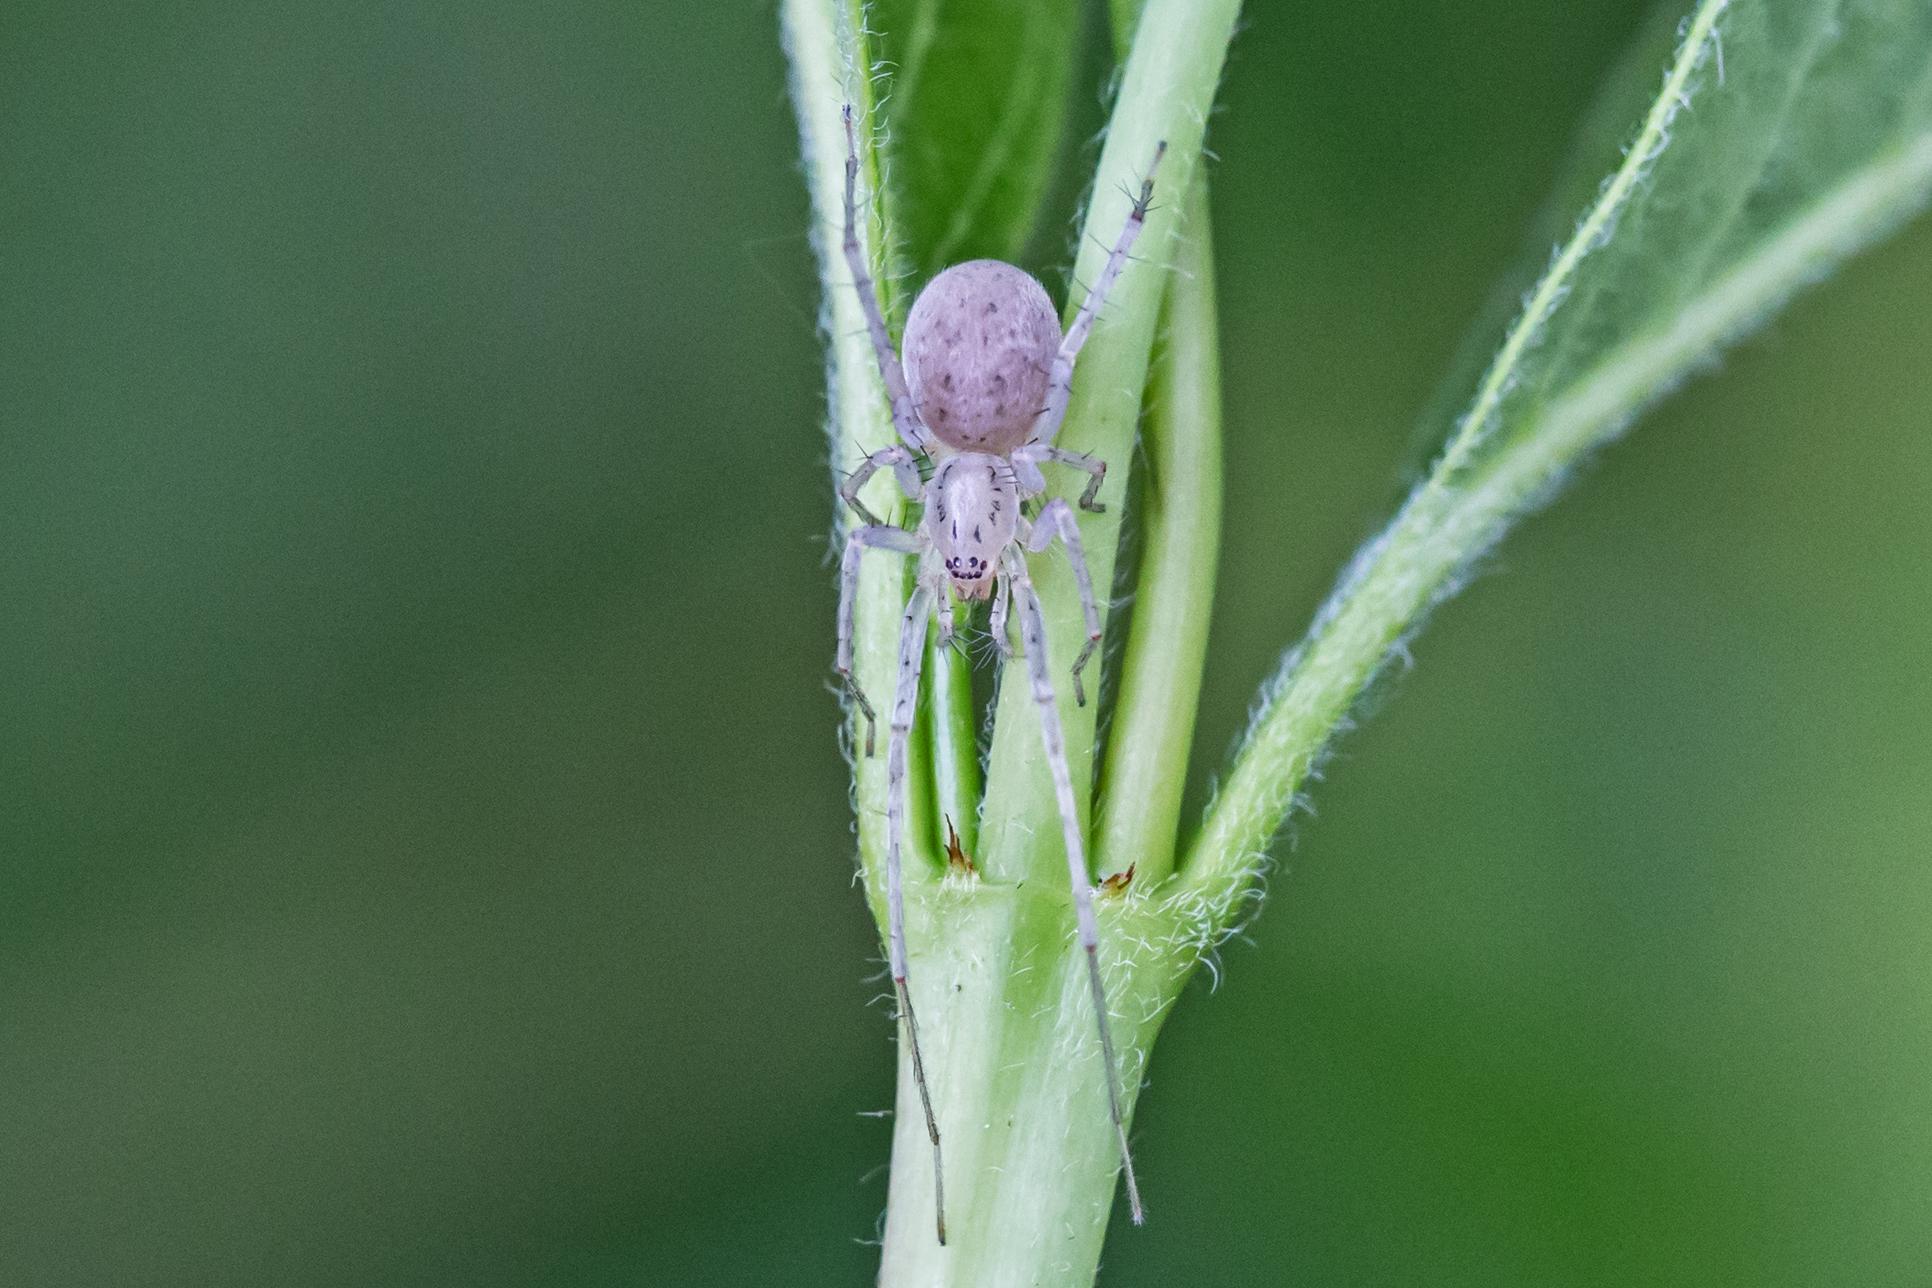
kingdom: Animalia
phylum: Arthropoda
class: Arachnida
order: Araneae
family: Anyphaenidae
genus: Wulfila
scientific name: Wulfila saltabundus
